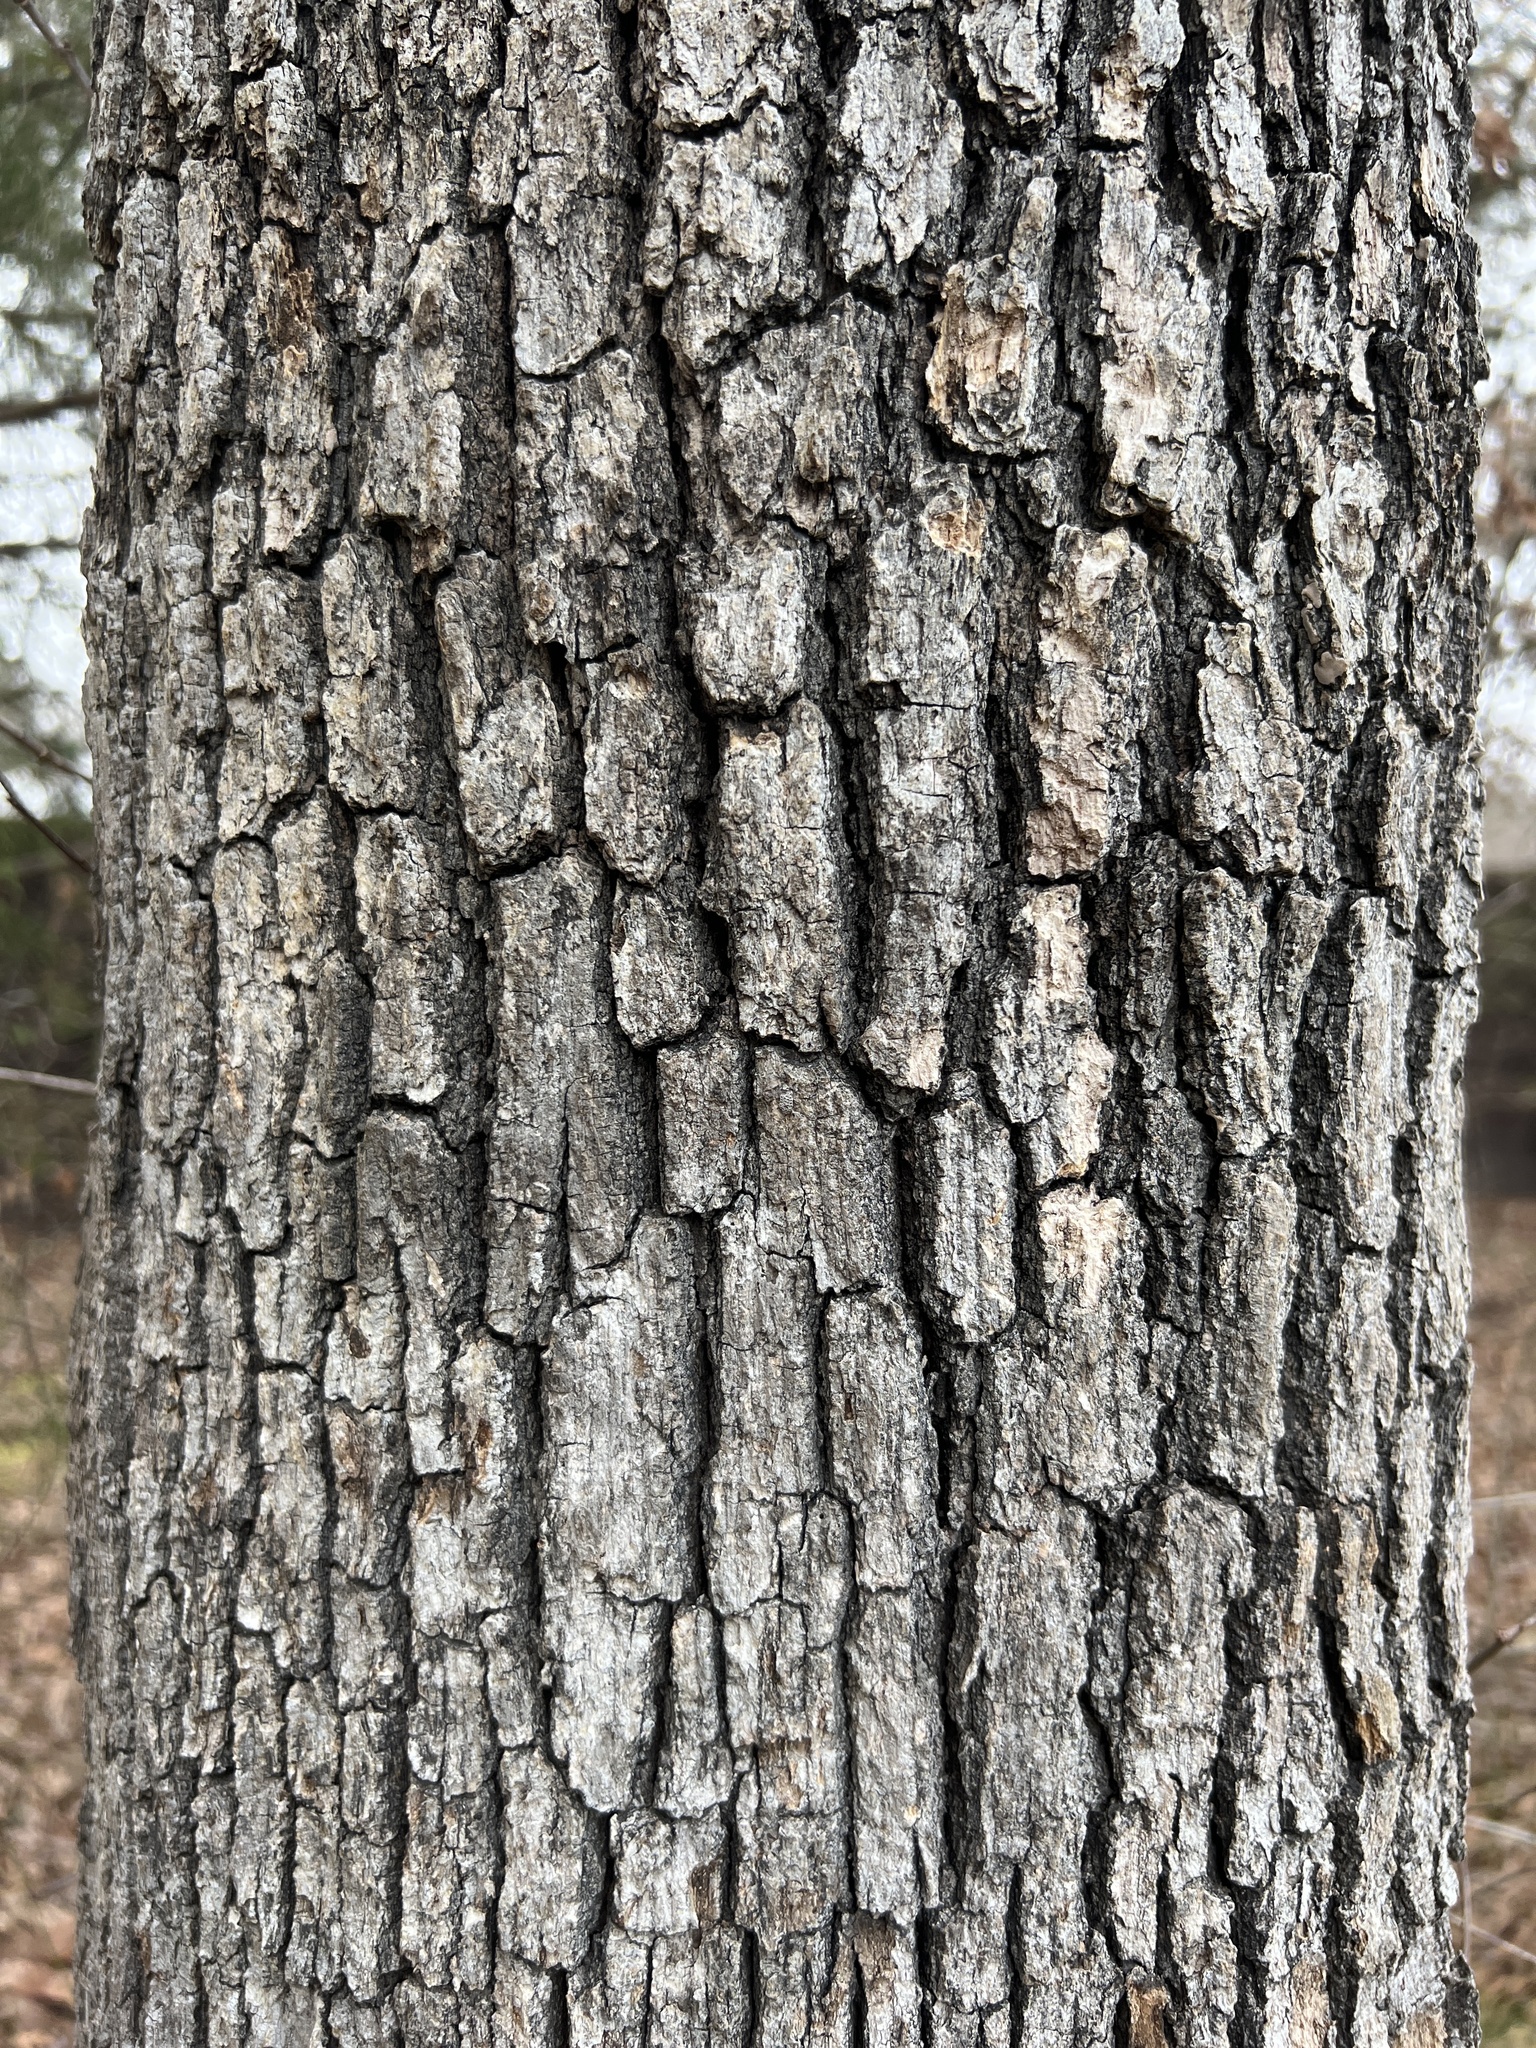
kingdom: Plantae
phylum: Tracheophyta
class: Magnoliopsida
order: Fagales
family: Fagaceae
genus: Quercus
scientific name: Quercus stellata
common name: Post oak
